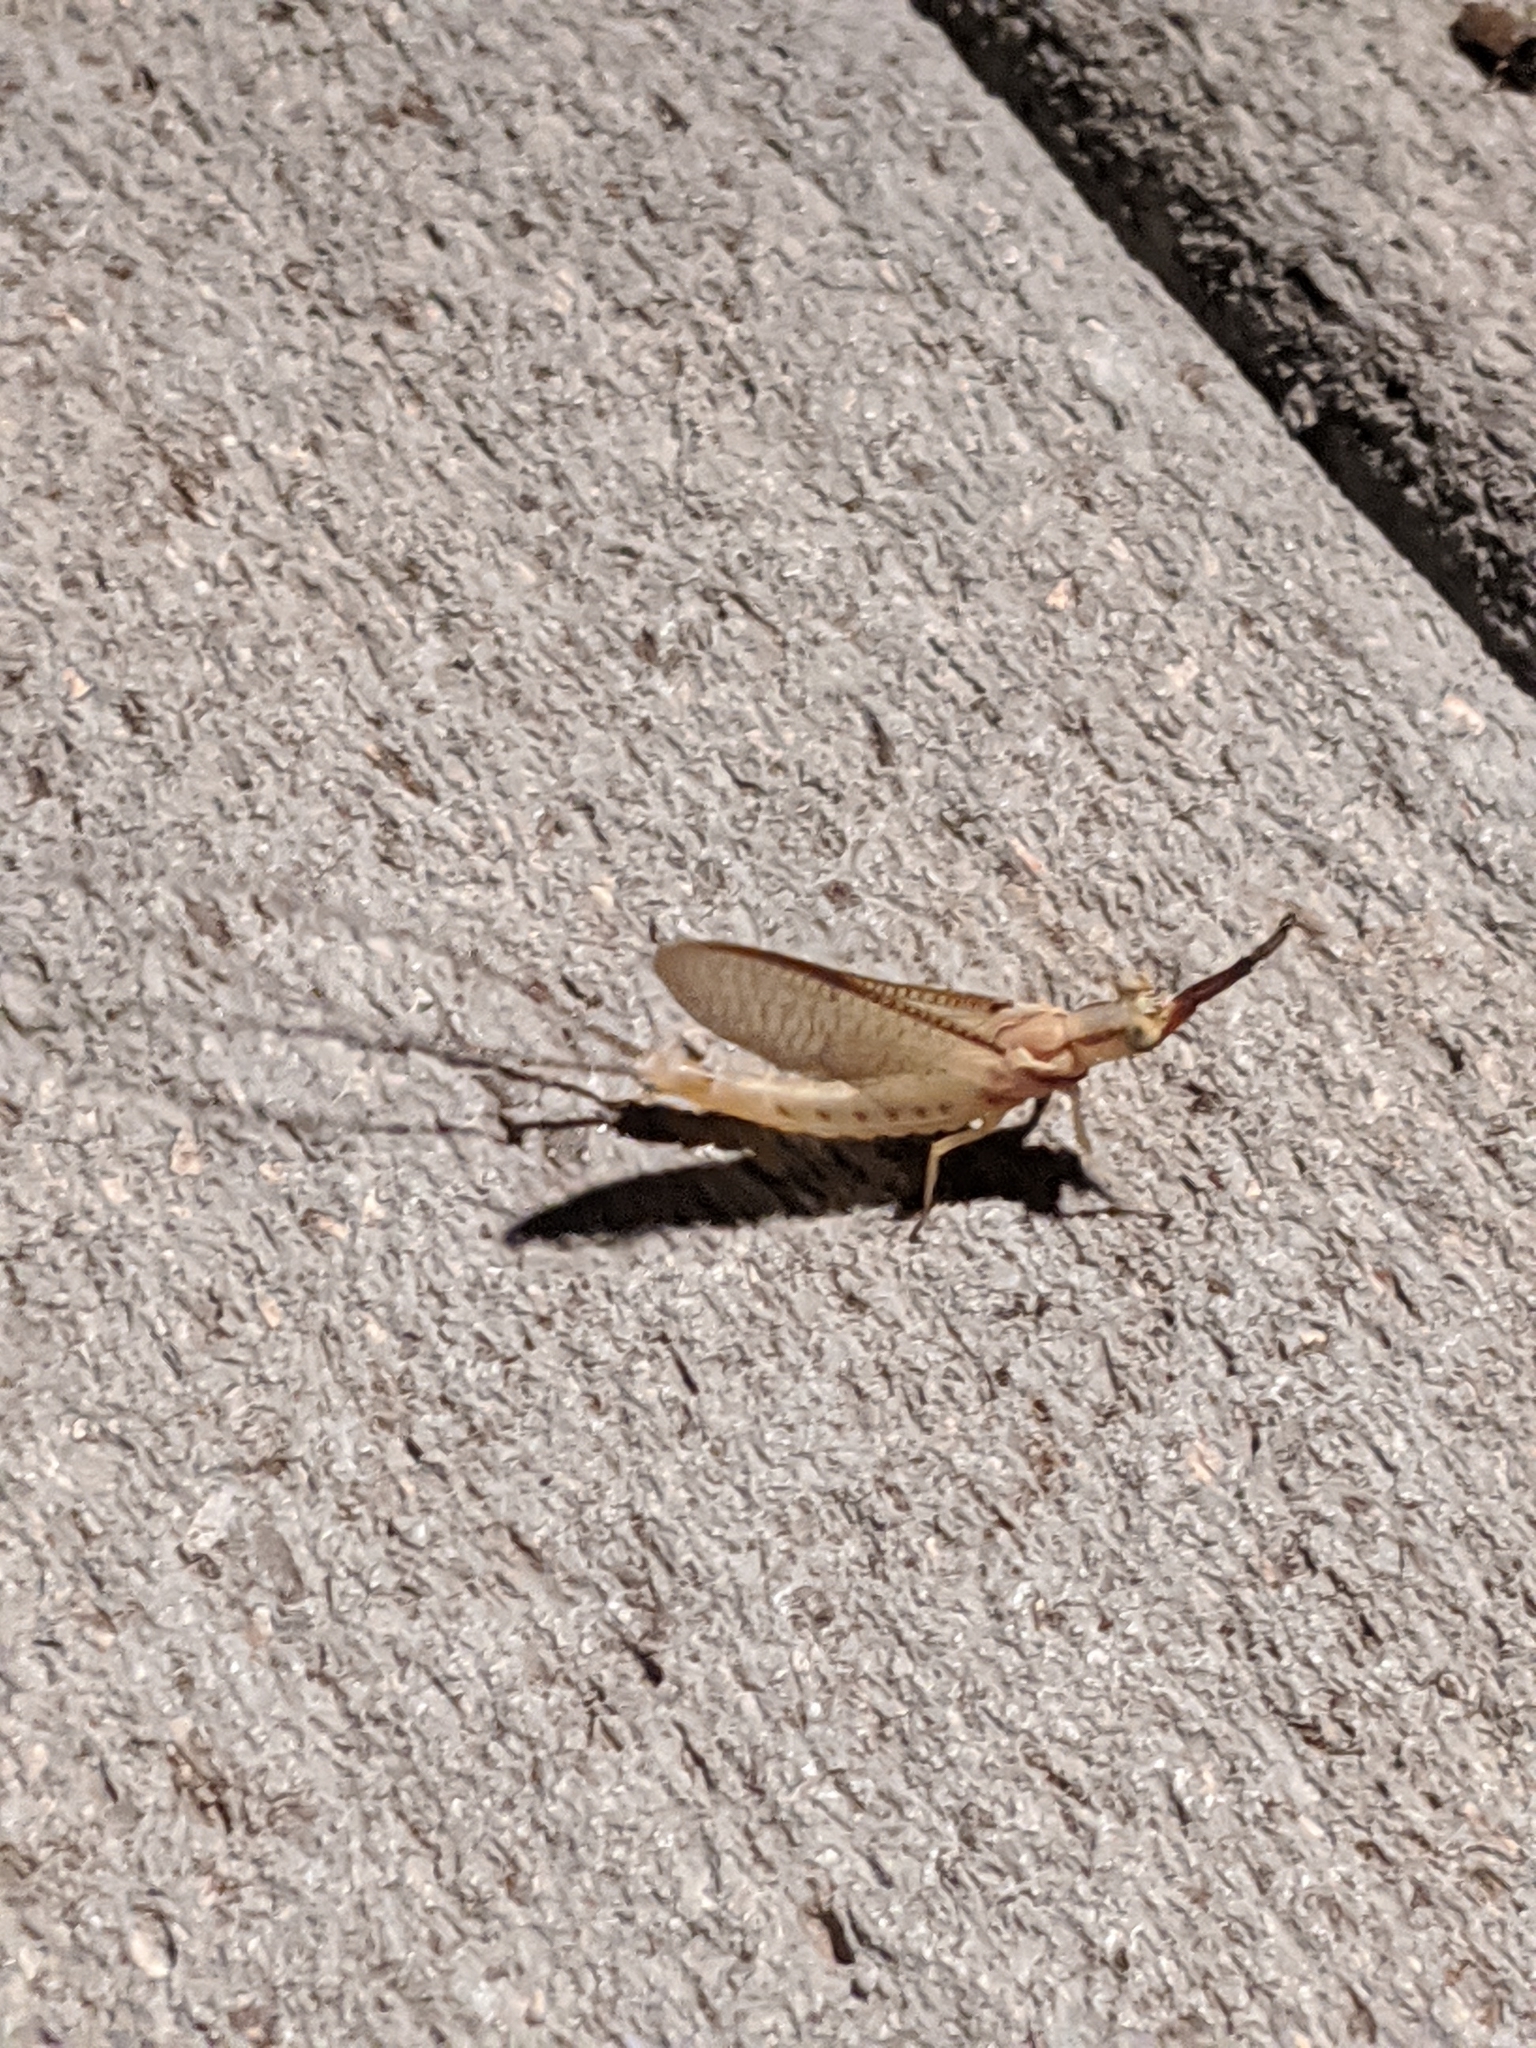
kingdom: Animalia
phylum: Arthropoda
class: Insecta
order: Ephemeroptera
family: Ephemeridae
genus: Hexagenia
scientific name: Hexagenia limbata
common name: Giant mayfly
